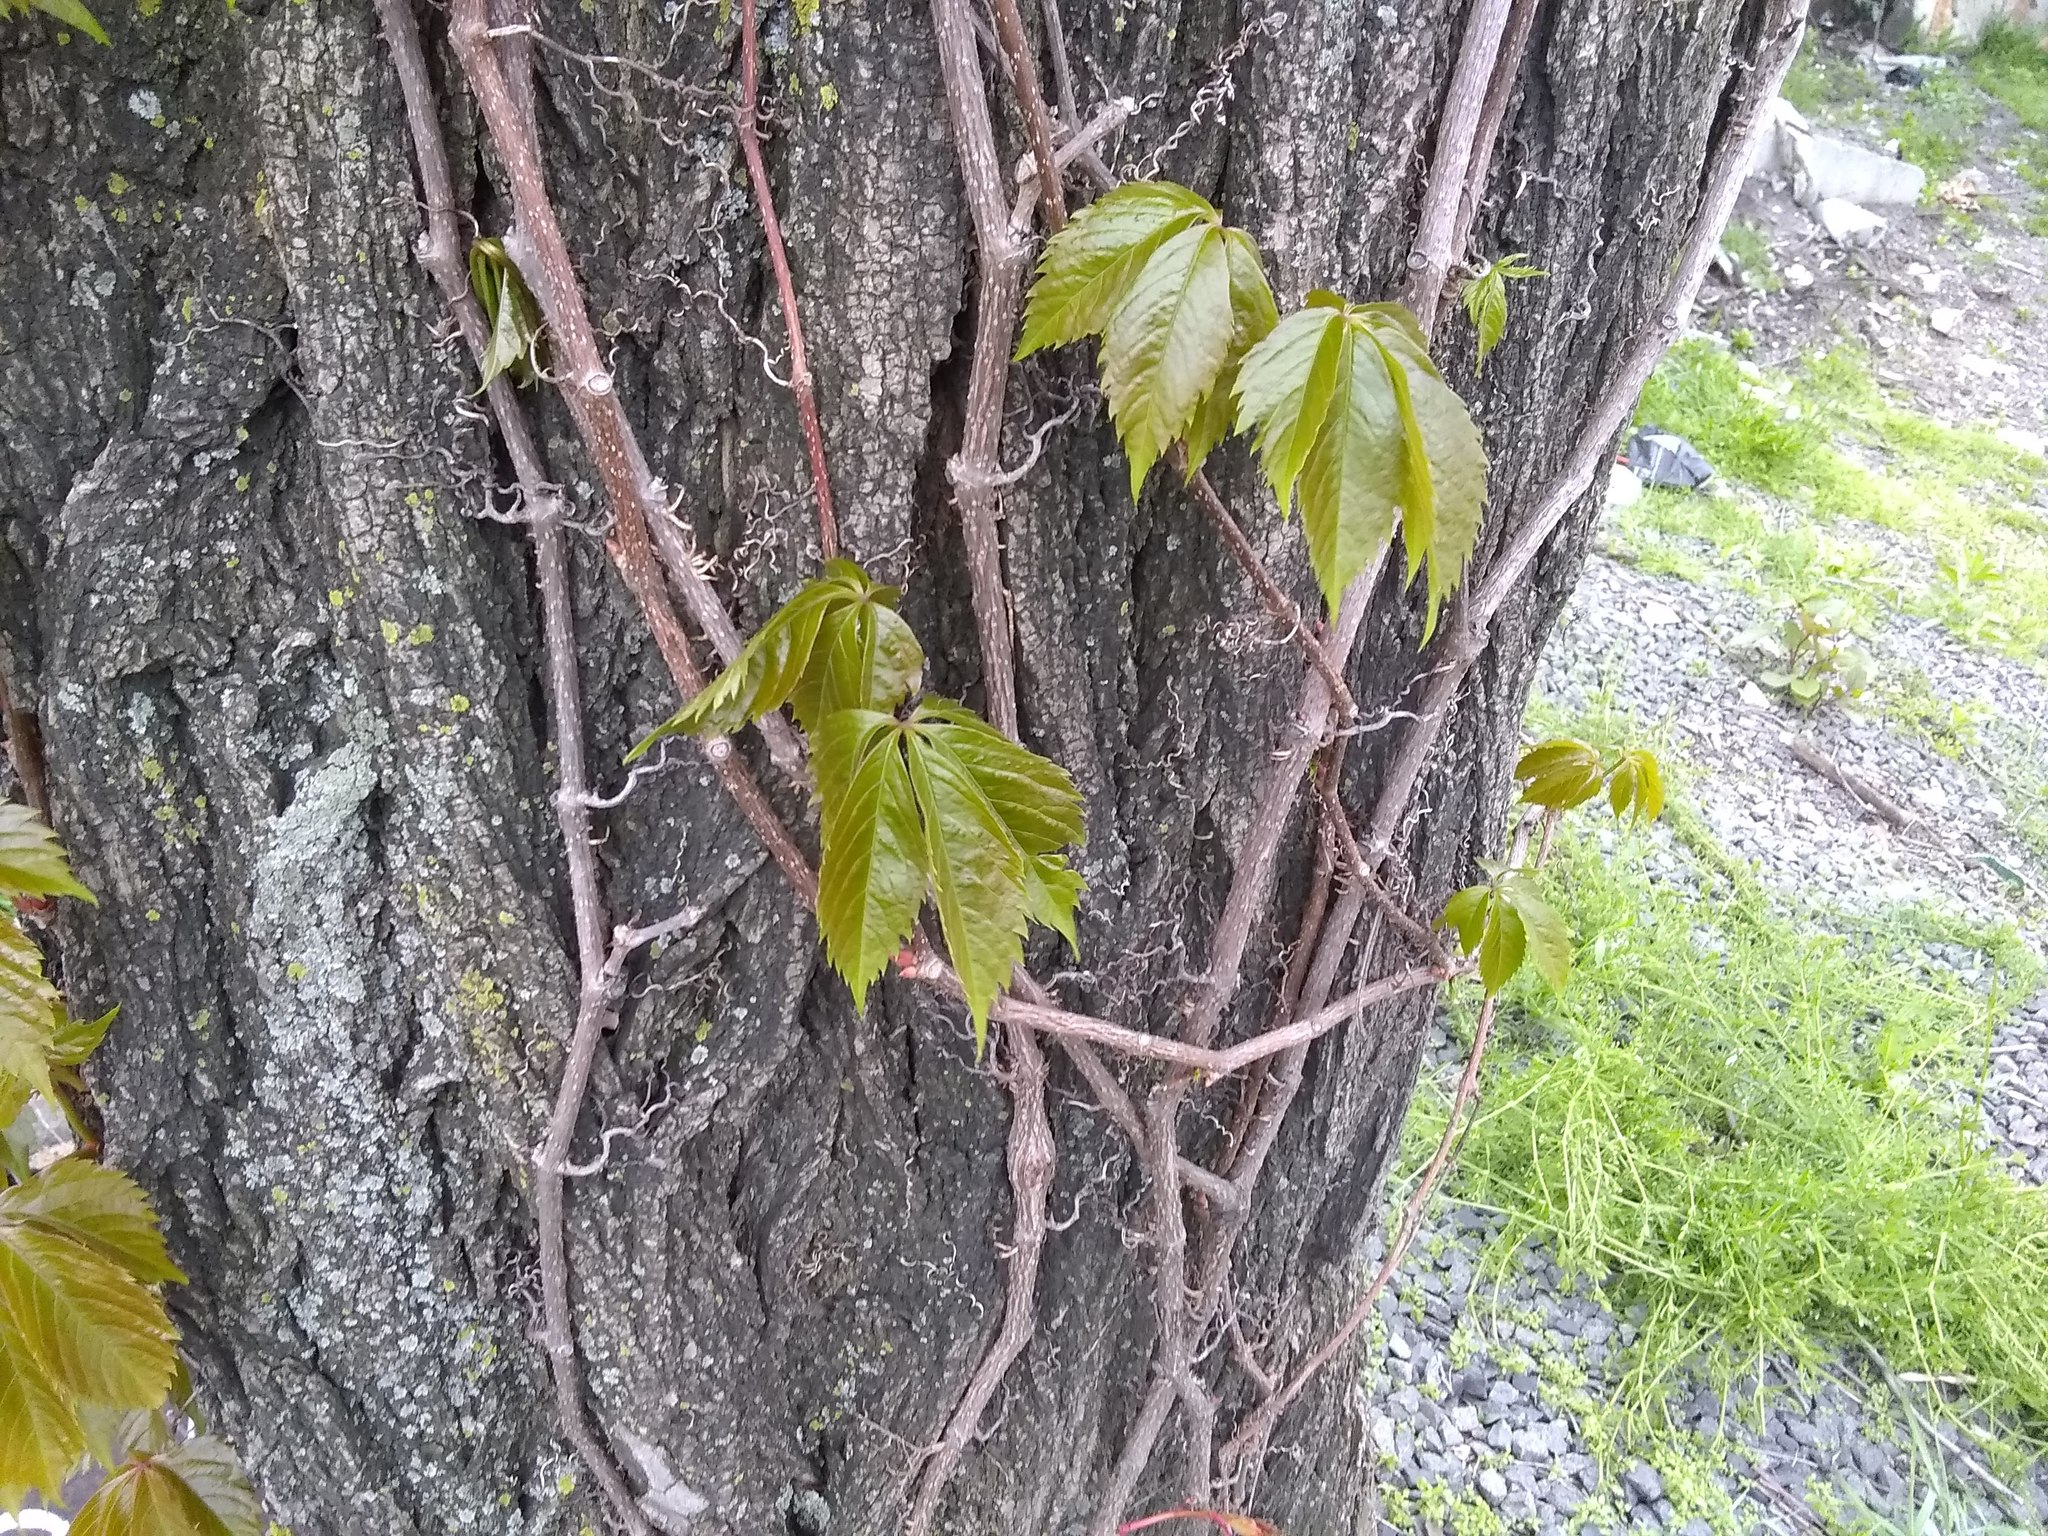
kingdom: Plantae
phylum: Tracheophyta
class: Magnoliopsida
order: Vitales
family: Vitaceae
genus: Parthenocissus
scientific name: Parthenocissus quinquefolia
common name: Virginia-creeper
